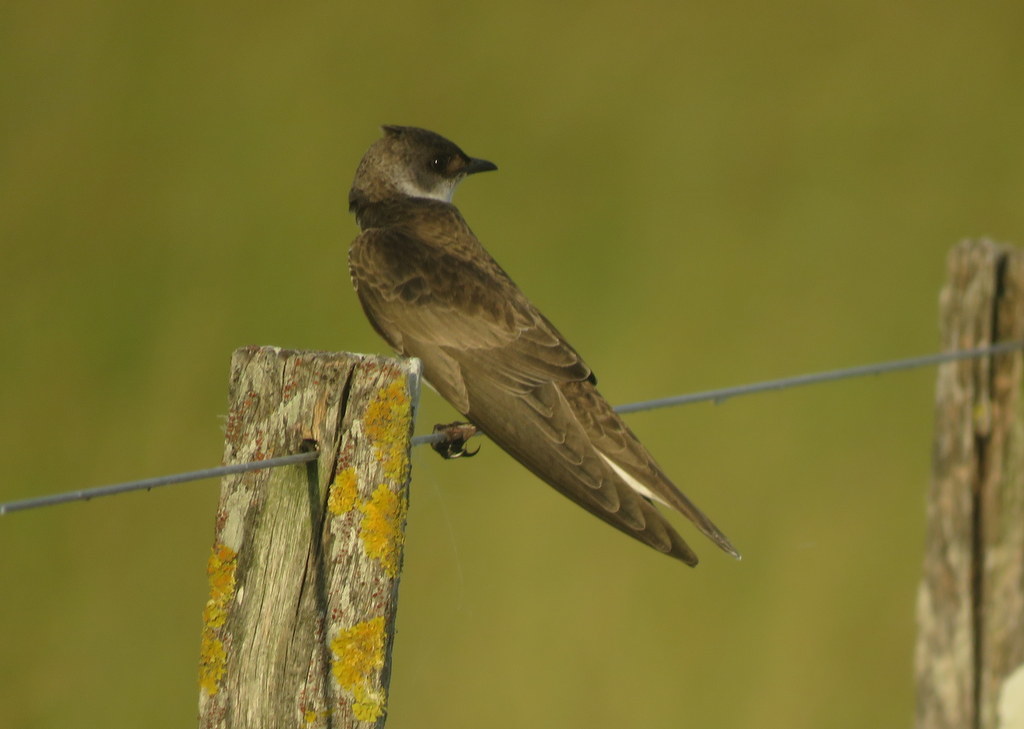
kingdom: Animalia
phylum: Chordata
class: Aves
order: Passeriformes
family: Hirundinidae
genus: Progne
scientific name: Progne tapera
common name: Brown-chested martin
